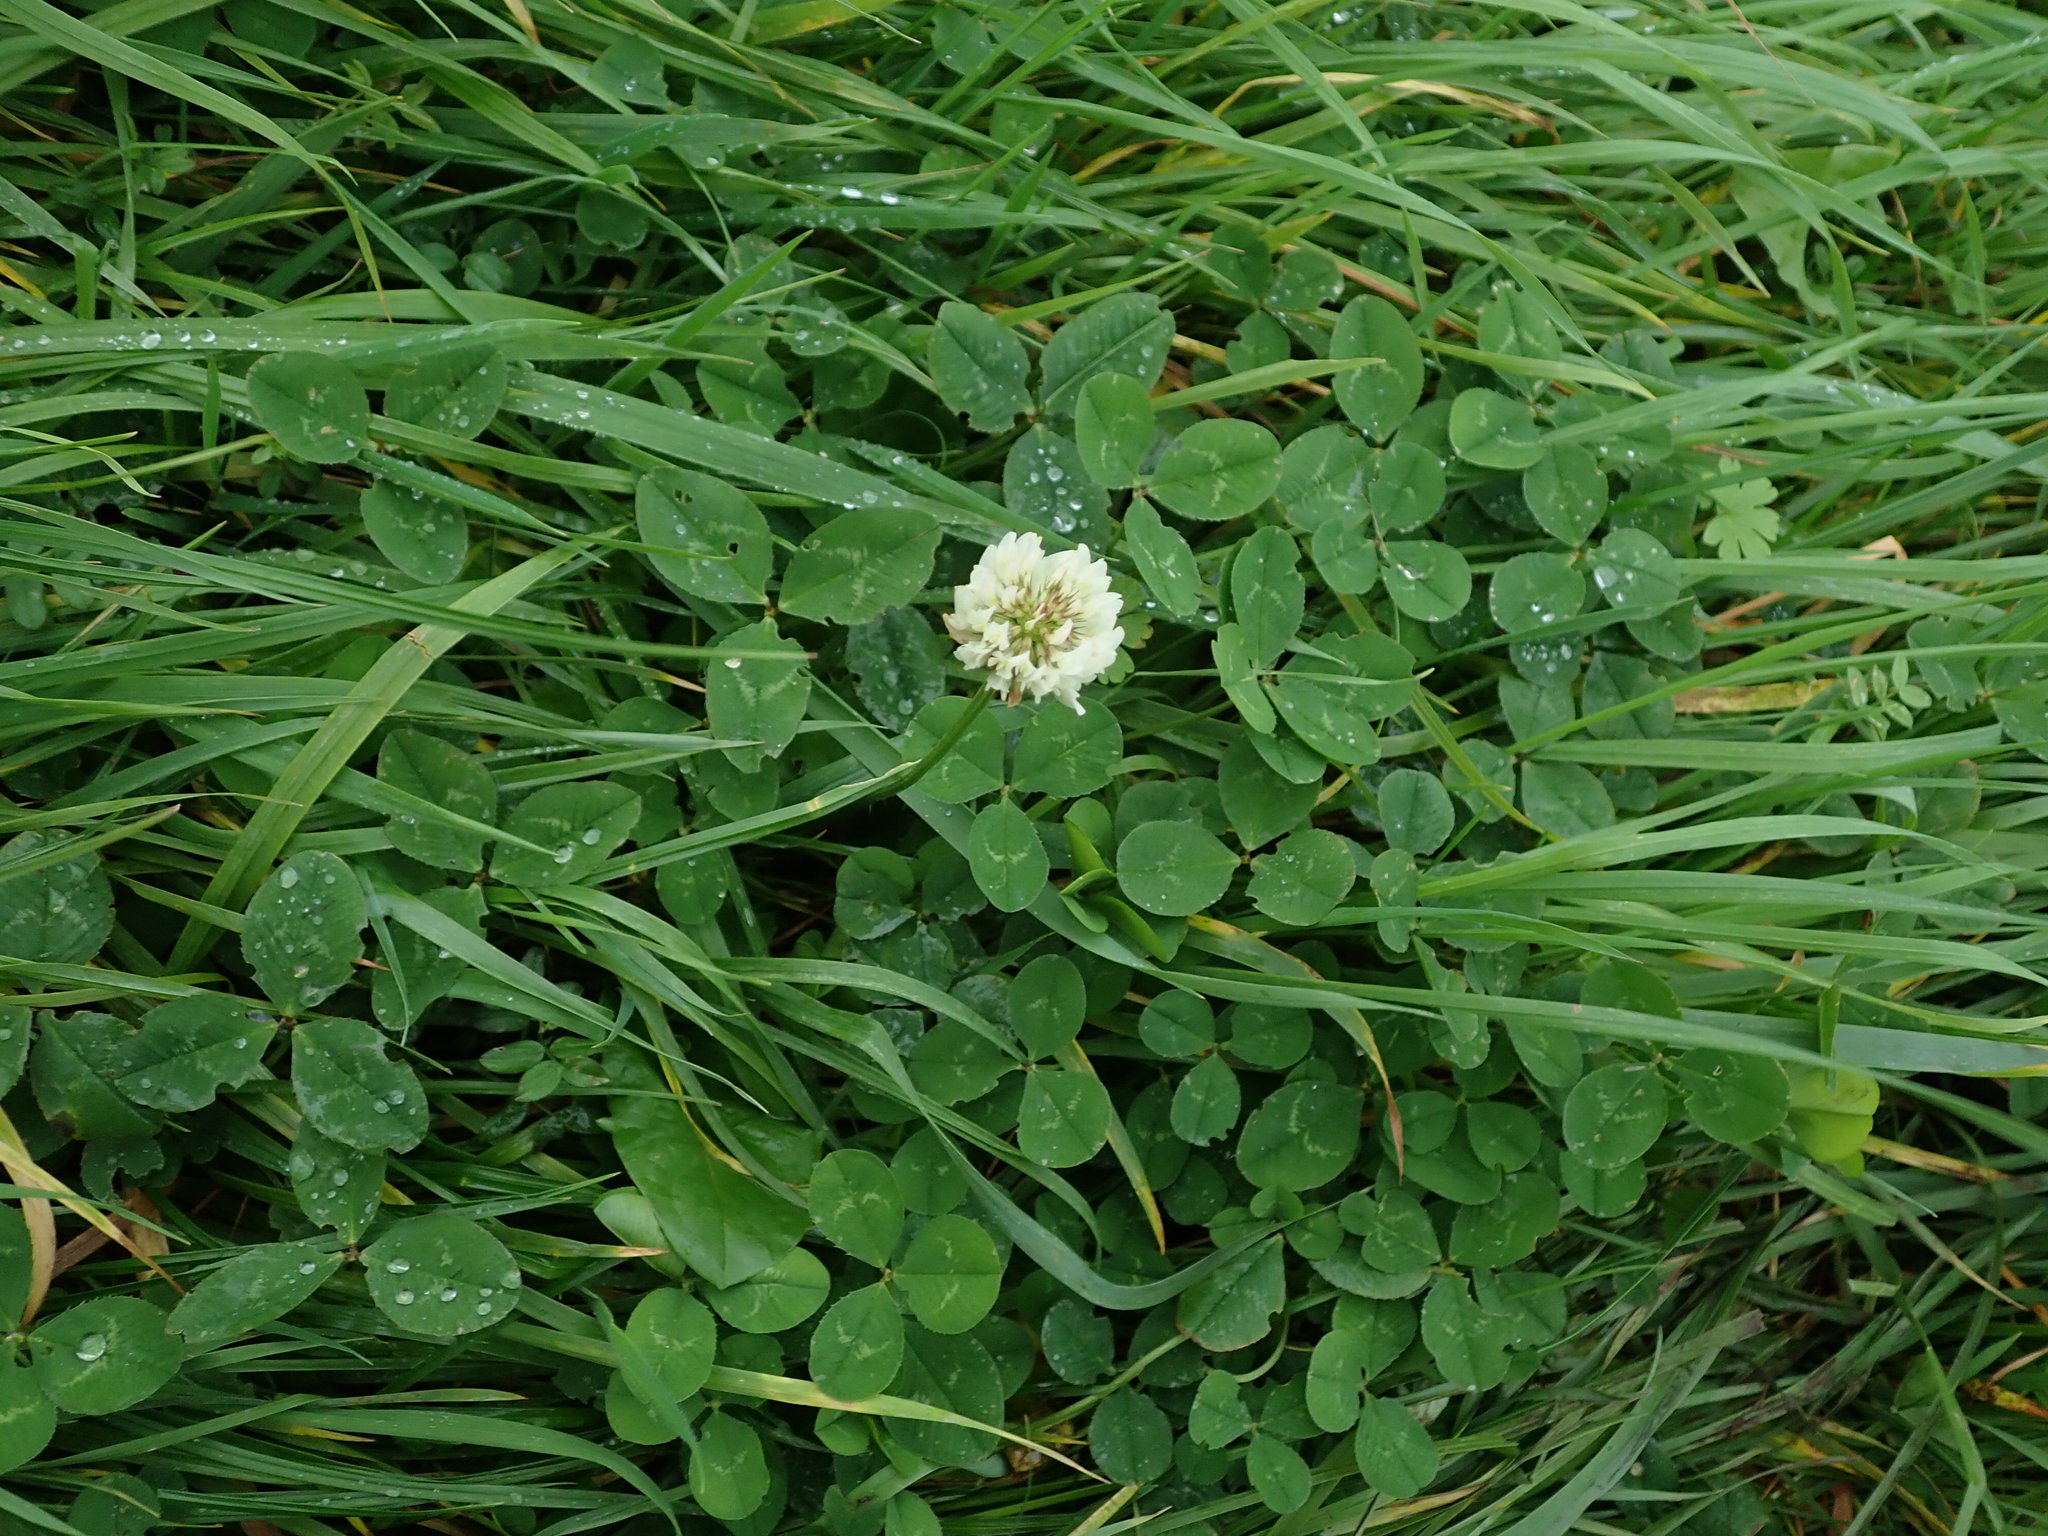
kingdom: Plantae
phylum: Tracheophyta
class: Magnoliopsida
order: Fabales
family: Fabaceae
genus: Trifolium
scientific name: Trifolium repens
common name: White clover
